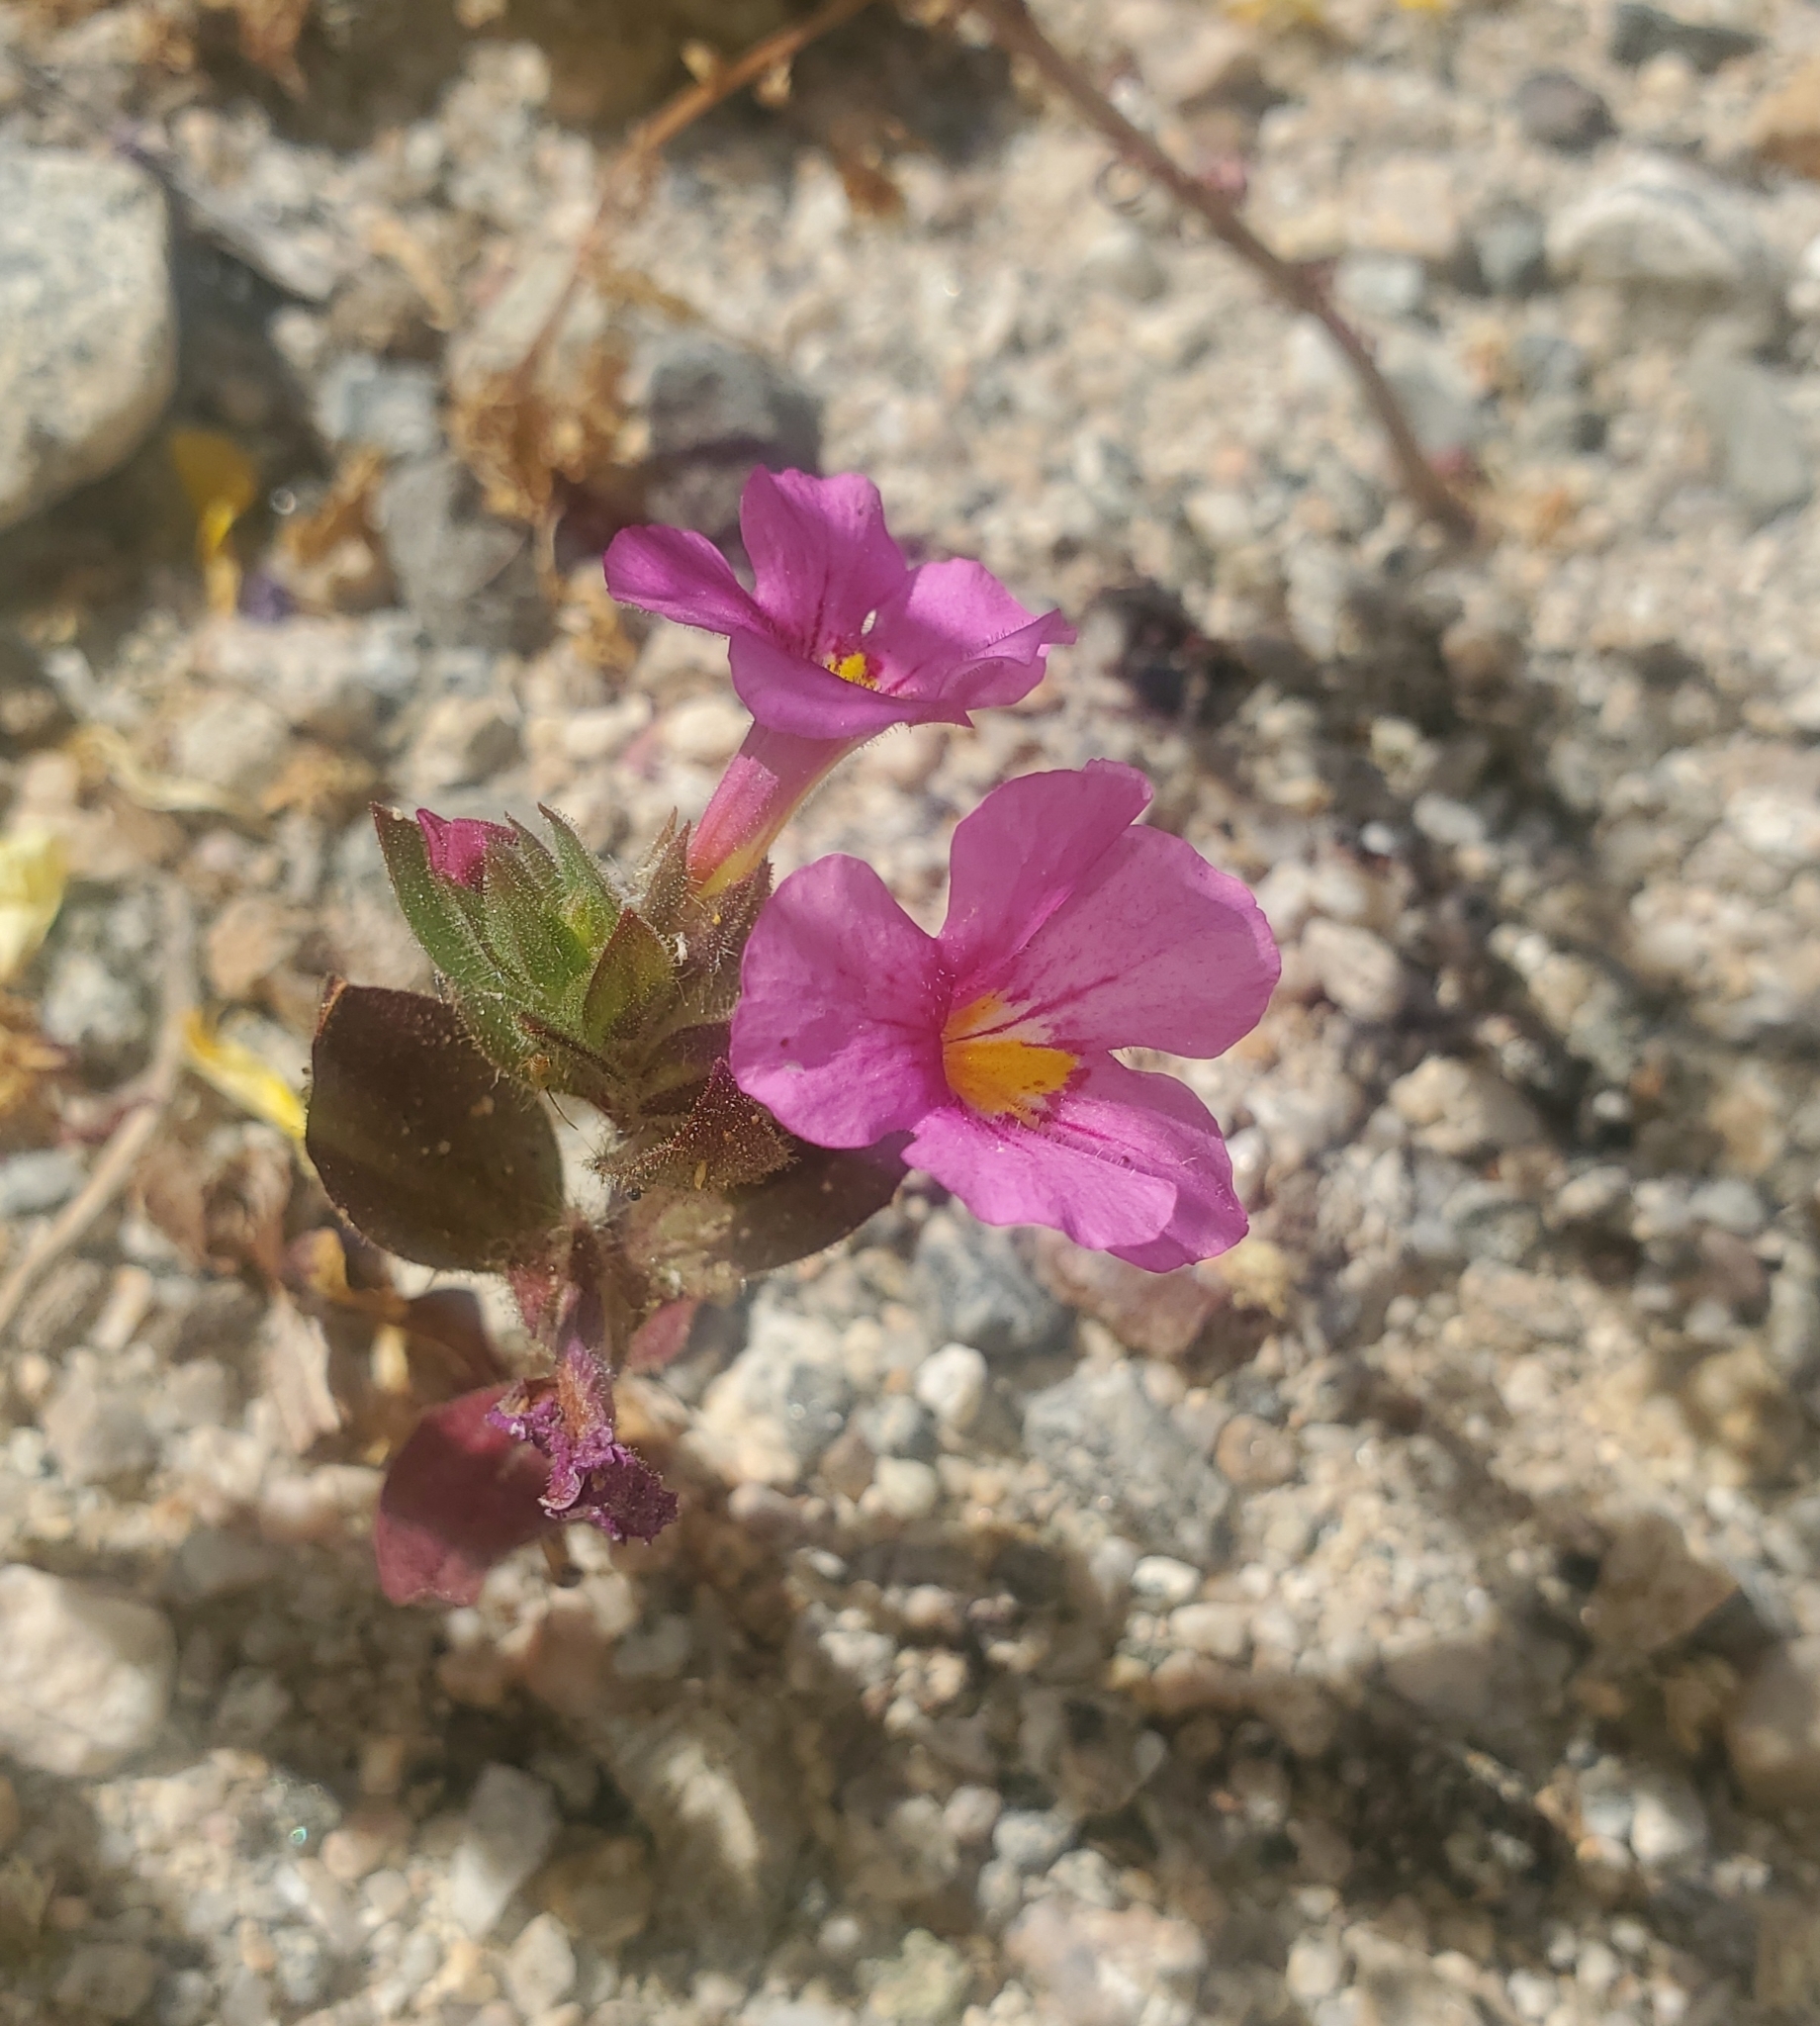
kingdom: Plantae
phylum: Tracheophyta
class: Magnoliopsida
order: Lamiales
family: Phrymaceae
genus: Diplacus
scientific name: Diplacus bigelovii
